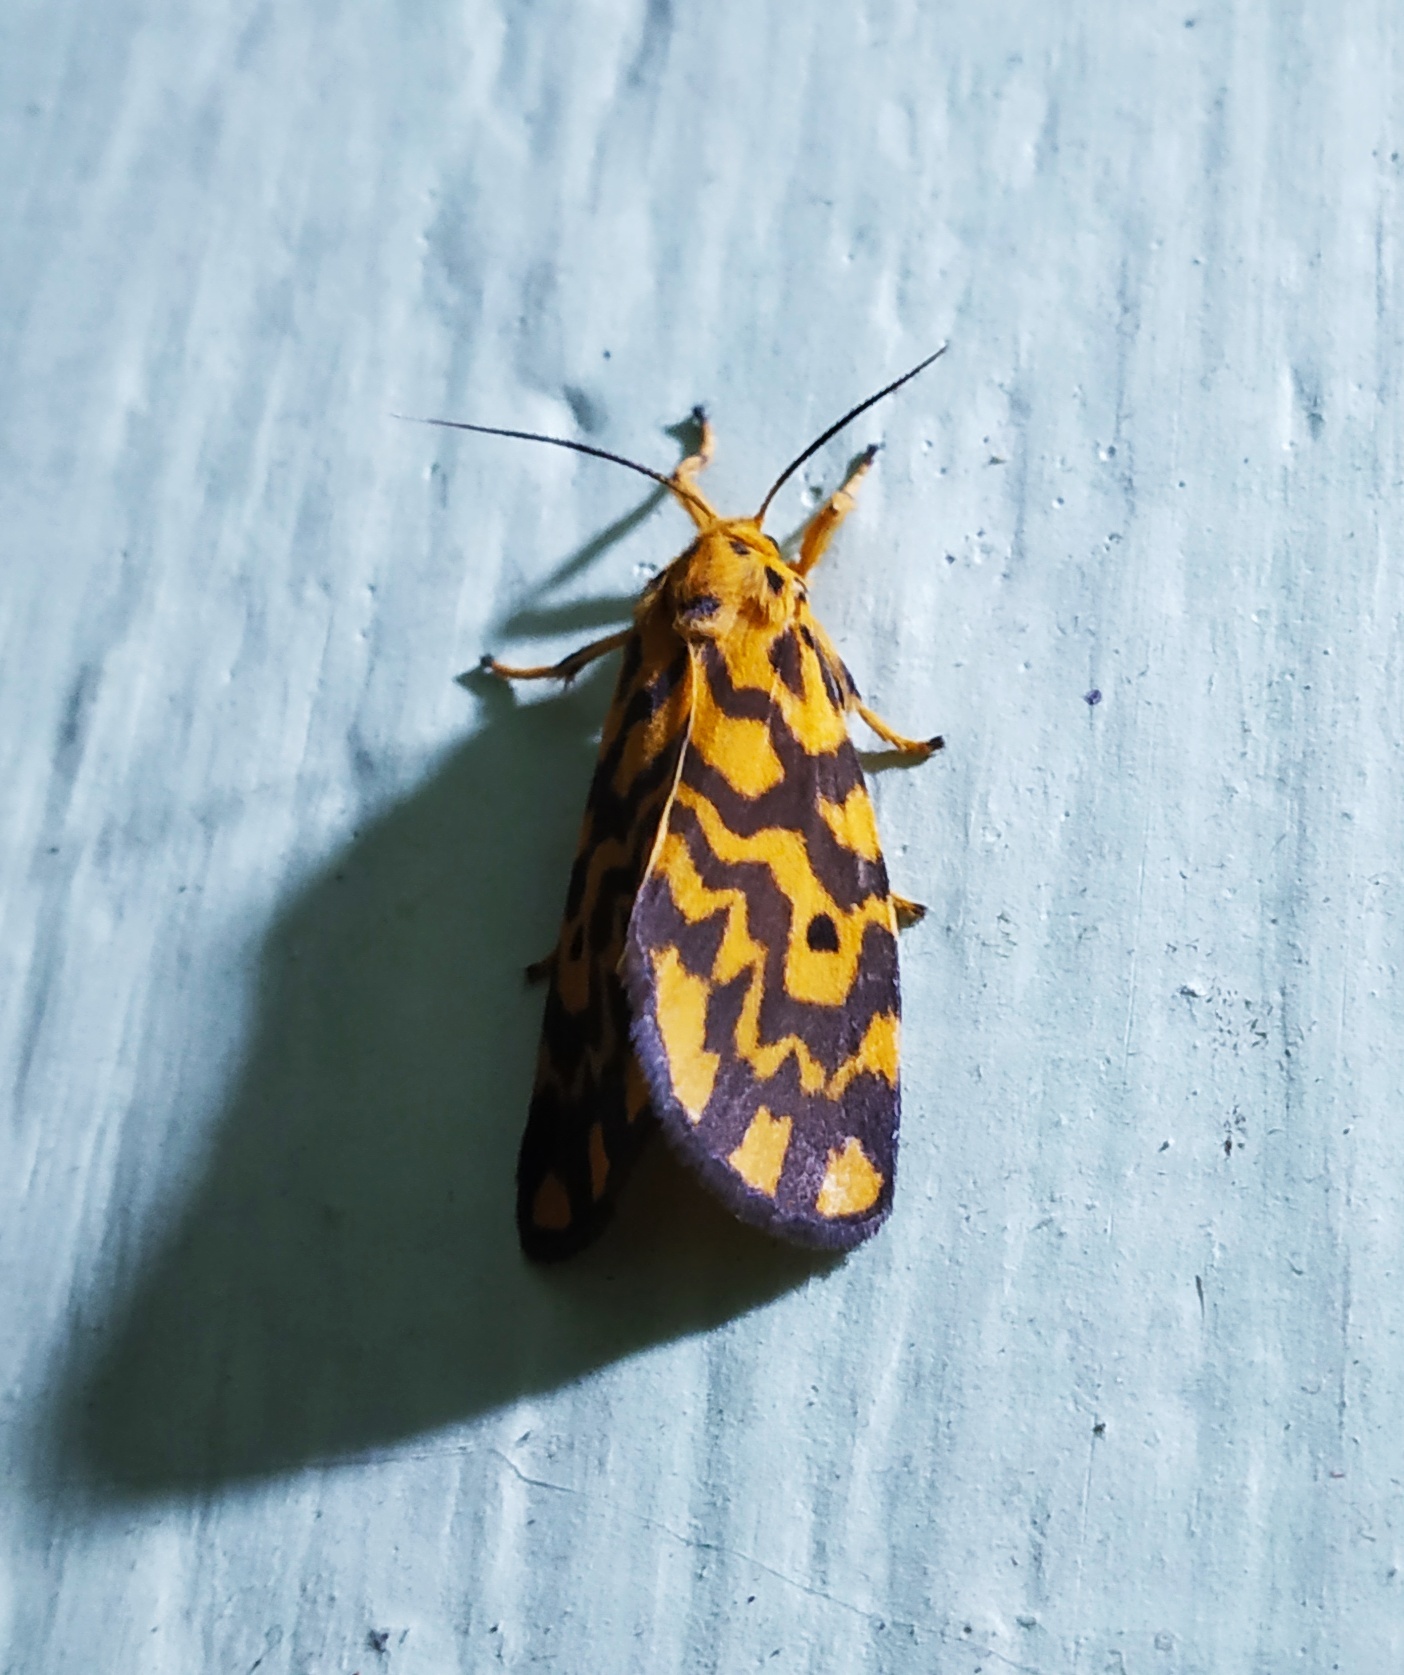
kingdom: Animalia
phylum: Arthropoda
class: Insecta
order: Lepidoptera
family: Erebidae
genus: Nepita
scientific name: Nepita conferta
